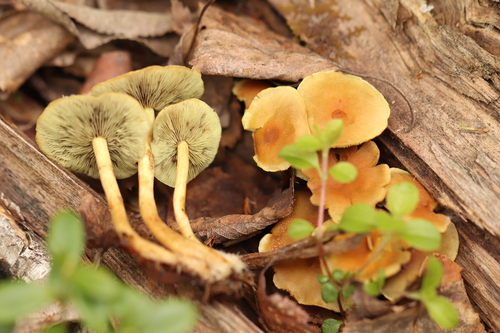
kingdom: Fungi
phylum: Basidiomycota
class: Agaricomycetes
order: Agaricales
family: Strophariaceae
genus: Hypholoma
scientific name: Hypholoma fasciculare
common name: Sulphur tuft
